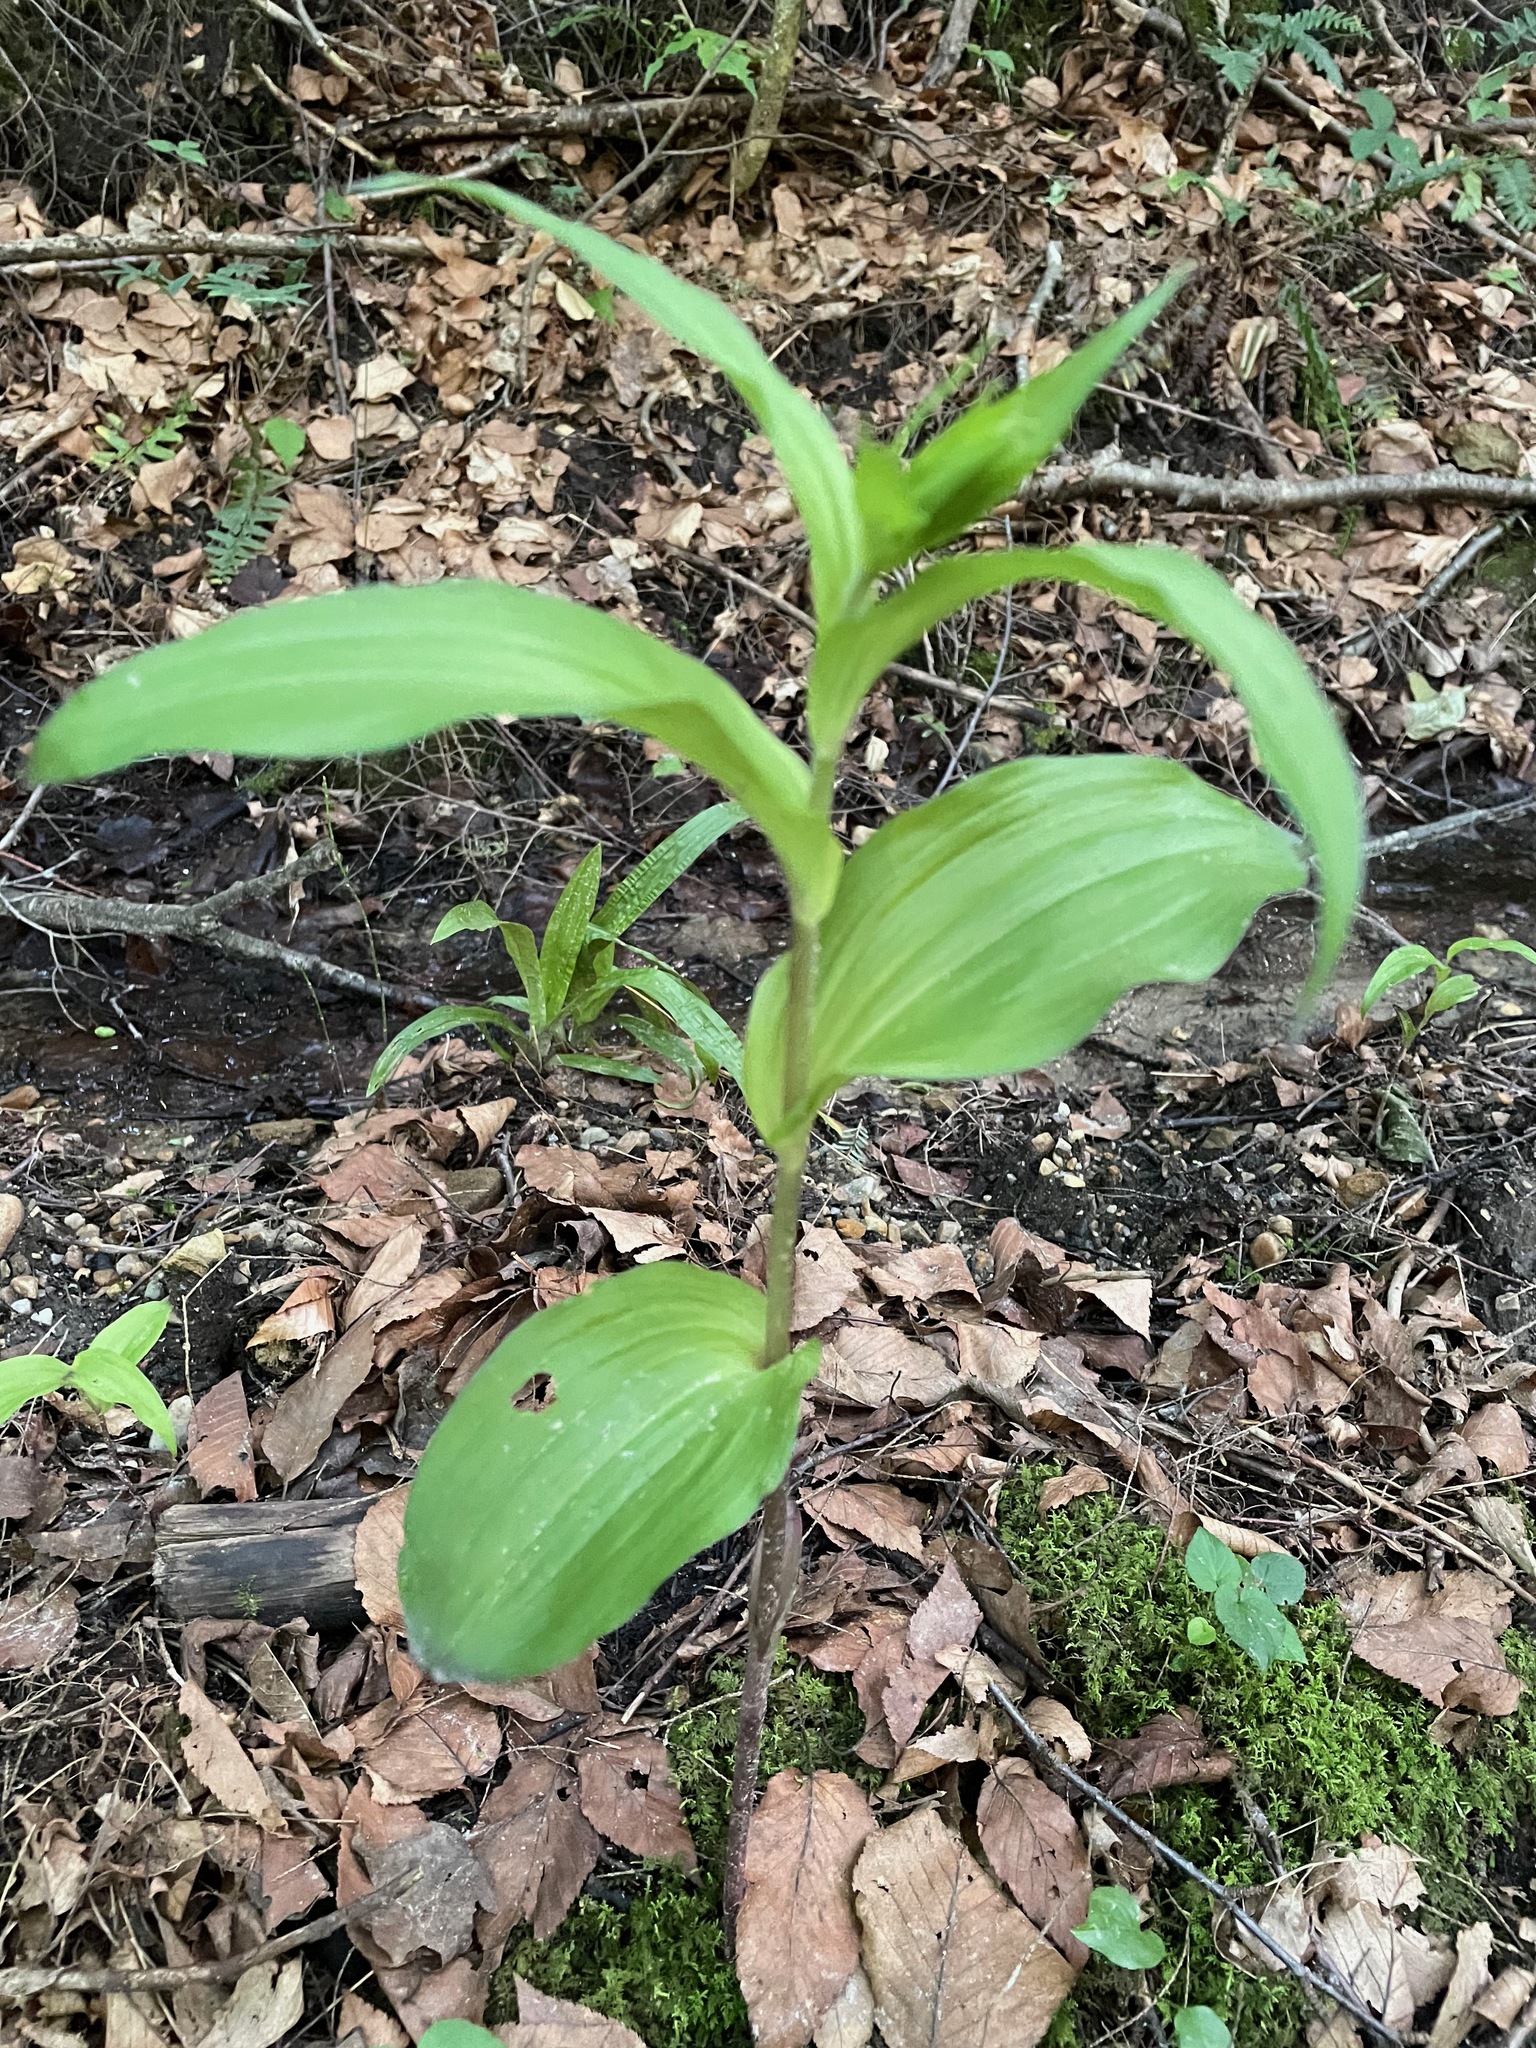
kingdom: Plantae
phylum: Tracheophyta
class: Liliopsida
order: Asparagales
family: Orchidaceae
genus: Epipactis
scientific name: Epipactis helleborine
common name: Broad-leaved helleborine
